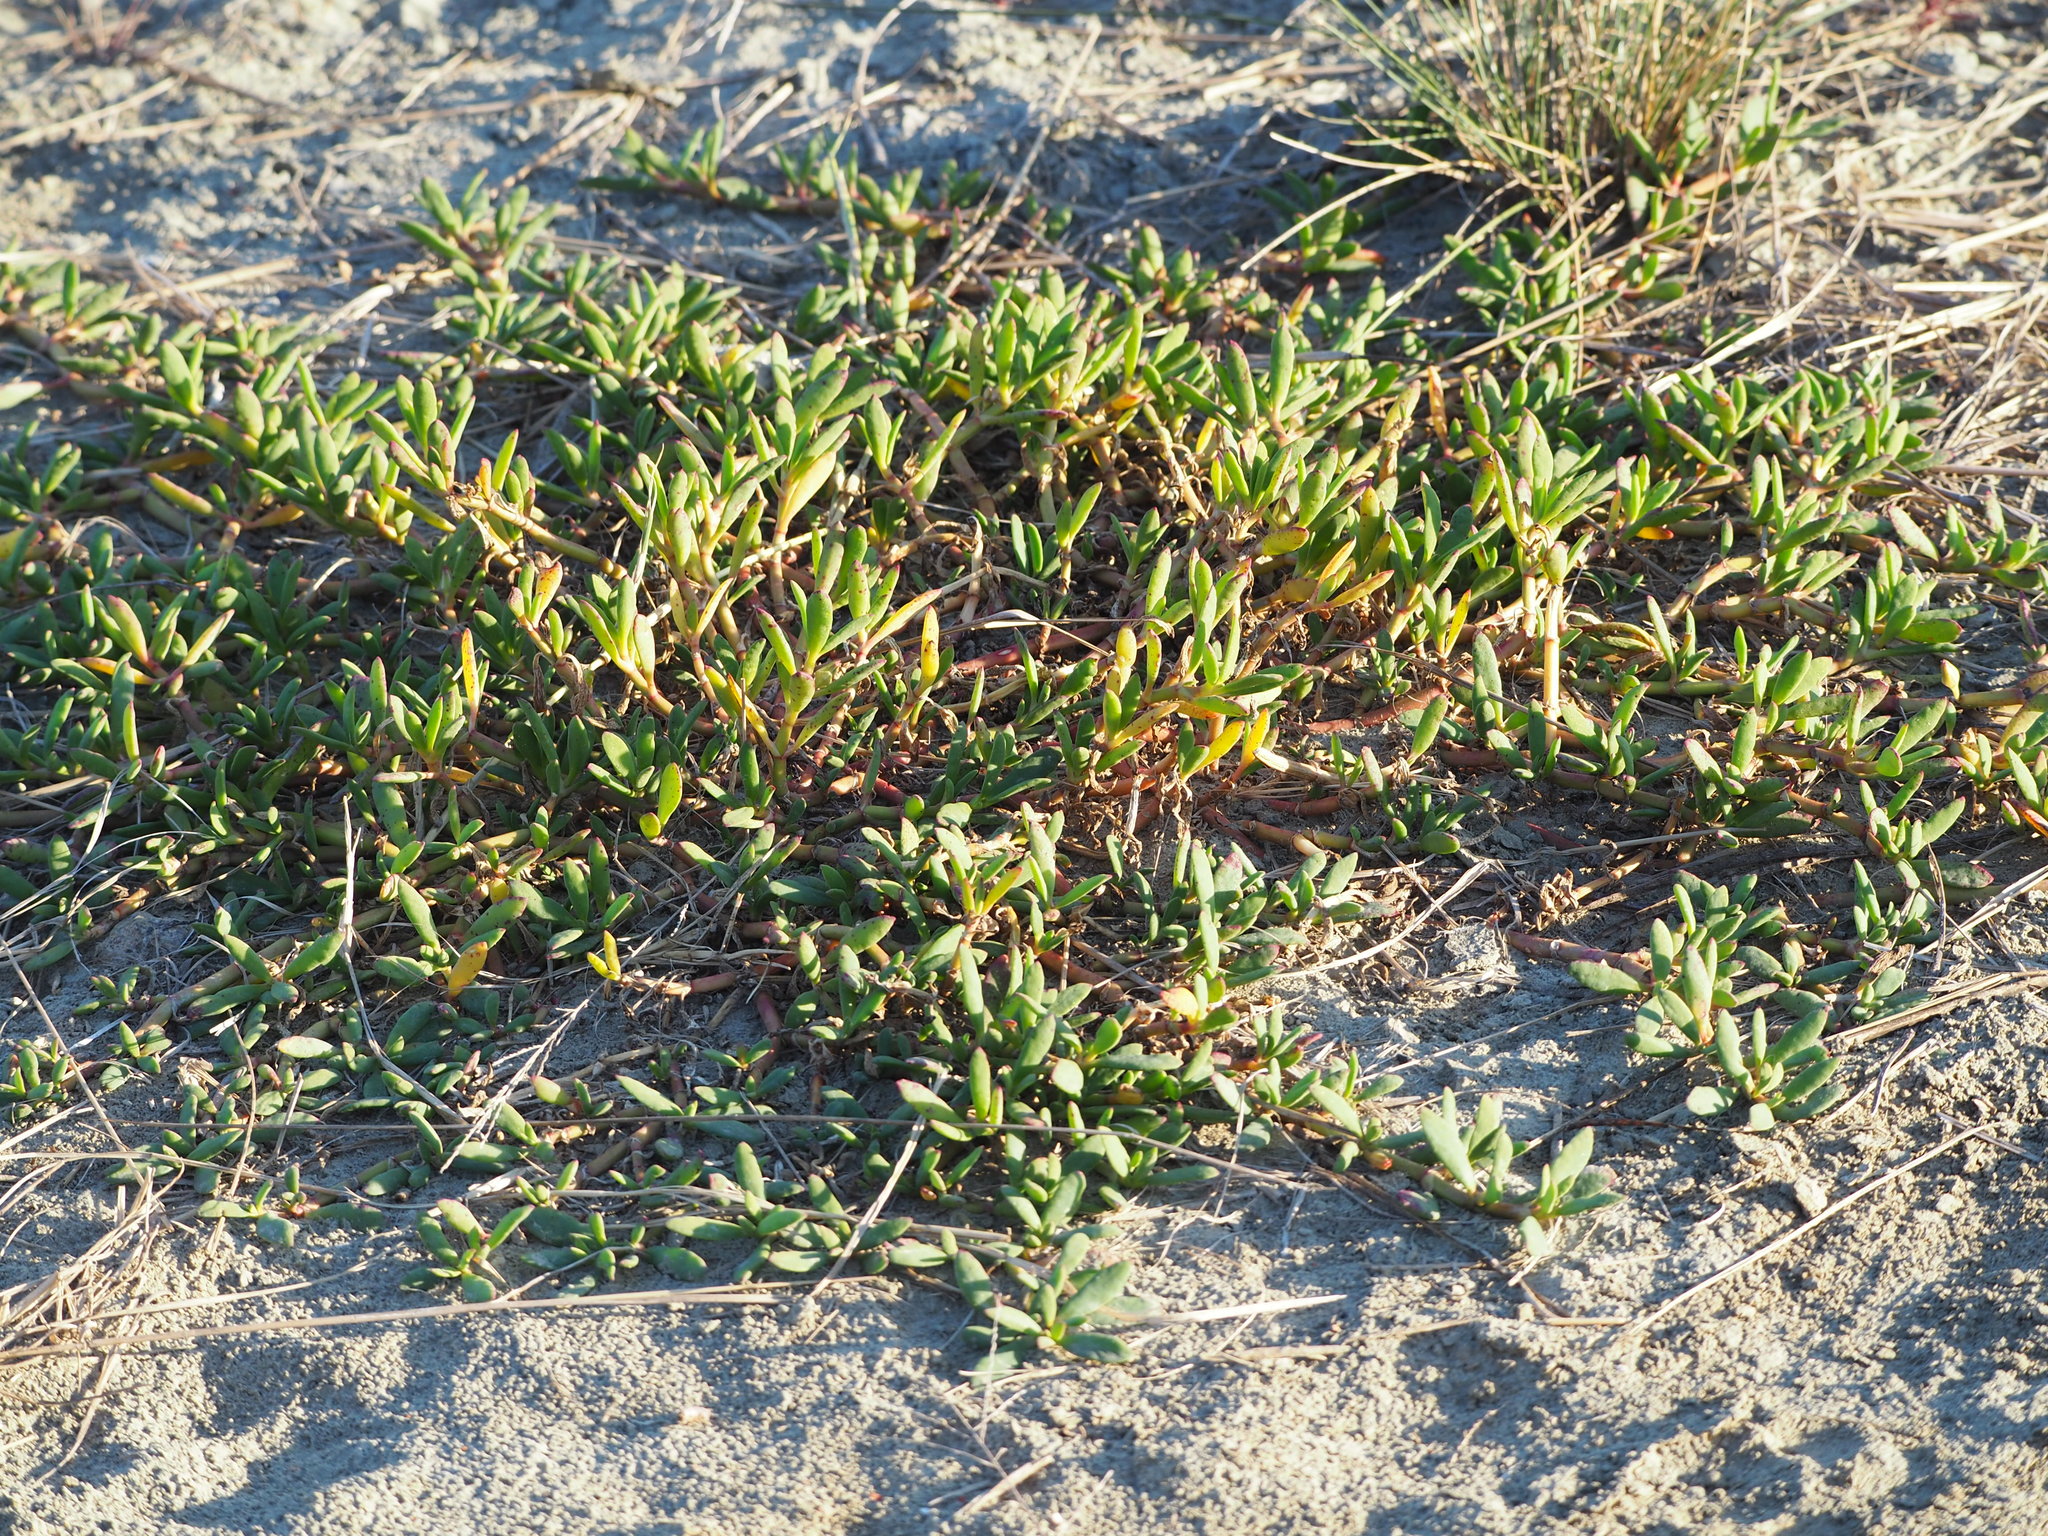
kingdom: Plantae
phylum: Tracheophyta
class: Magnoliopsida
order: Caryophyllales
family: Aizoaceae
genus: Trianthema
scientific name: Trianthema portulacastrum
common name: Desert horsepurslane
